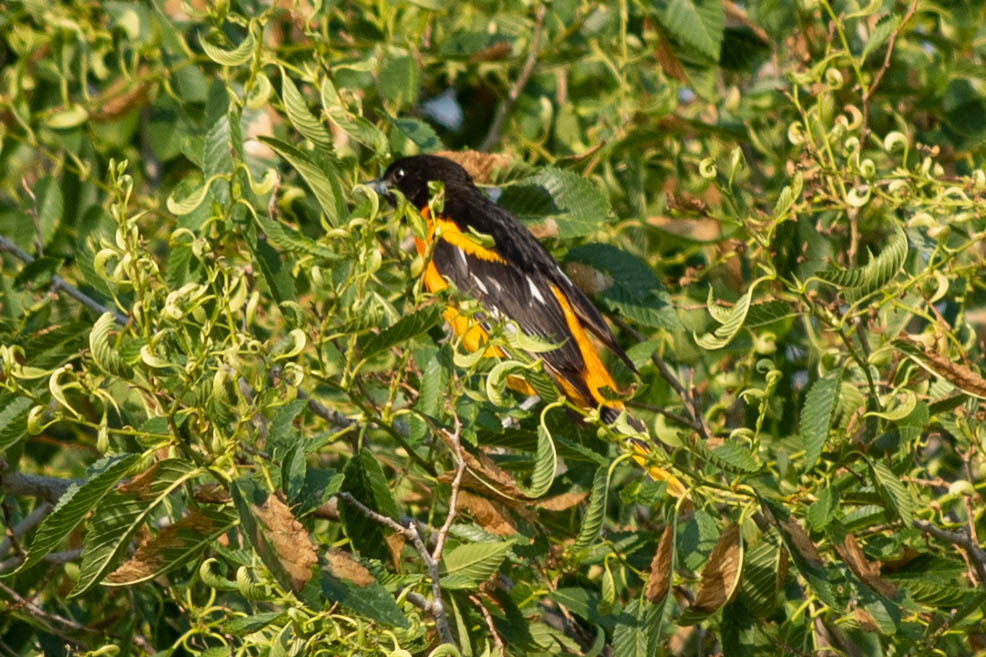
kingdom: Animalia
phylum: Chordata
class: Aves
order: Passeriformes
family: Icteridae
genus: Icterus
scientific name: Icterus galbula
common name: Baltimore oriole
